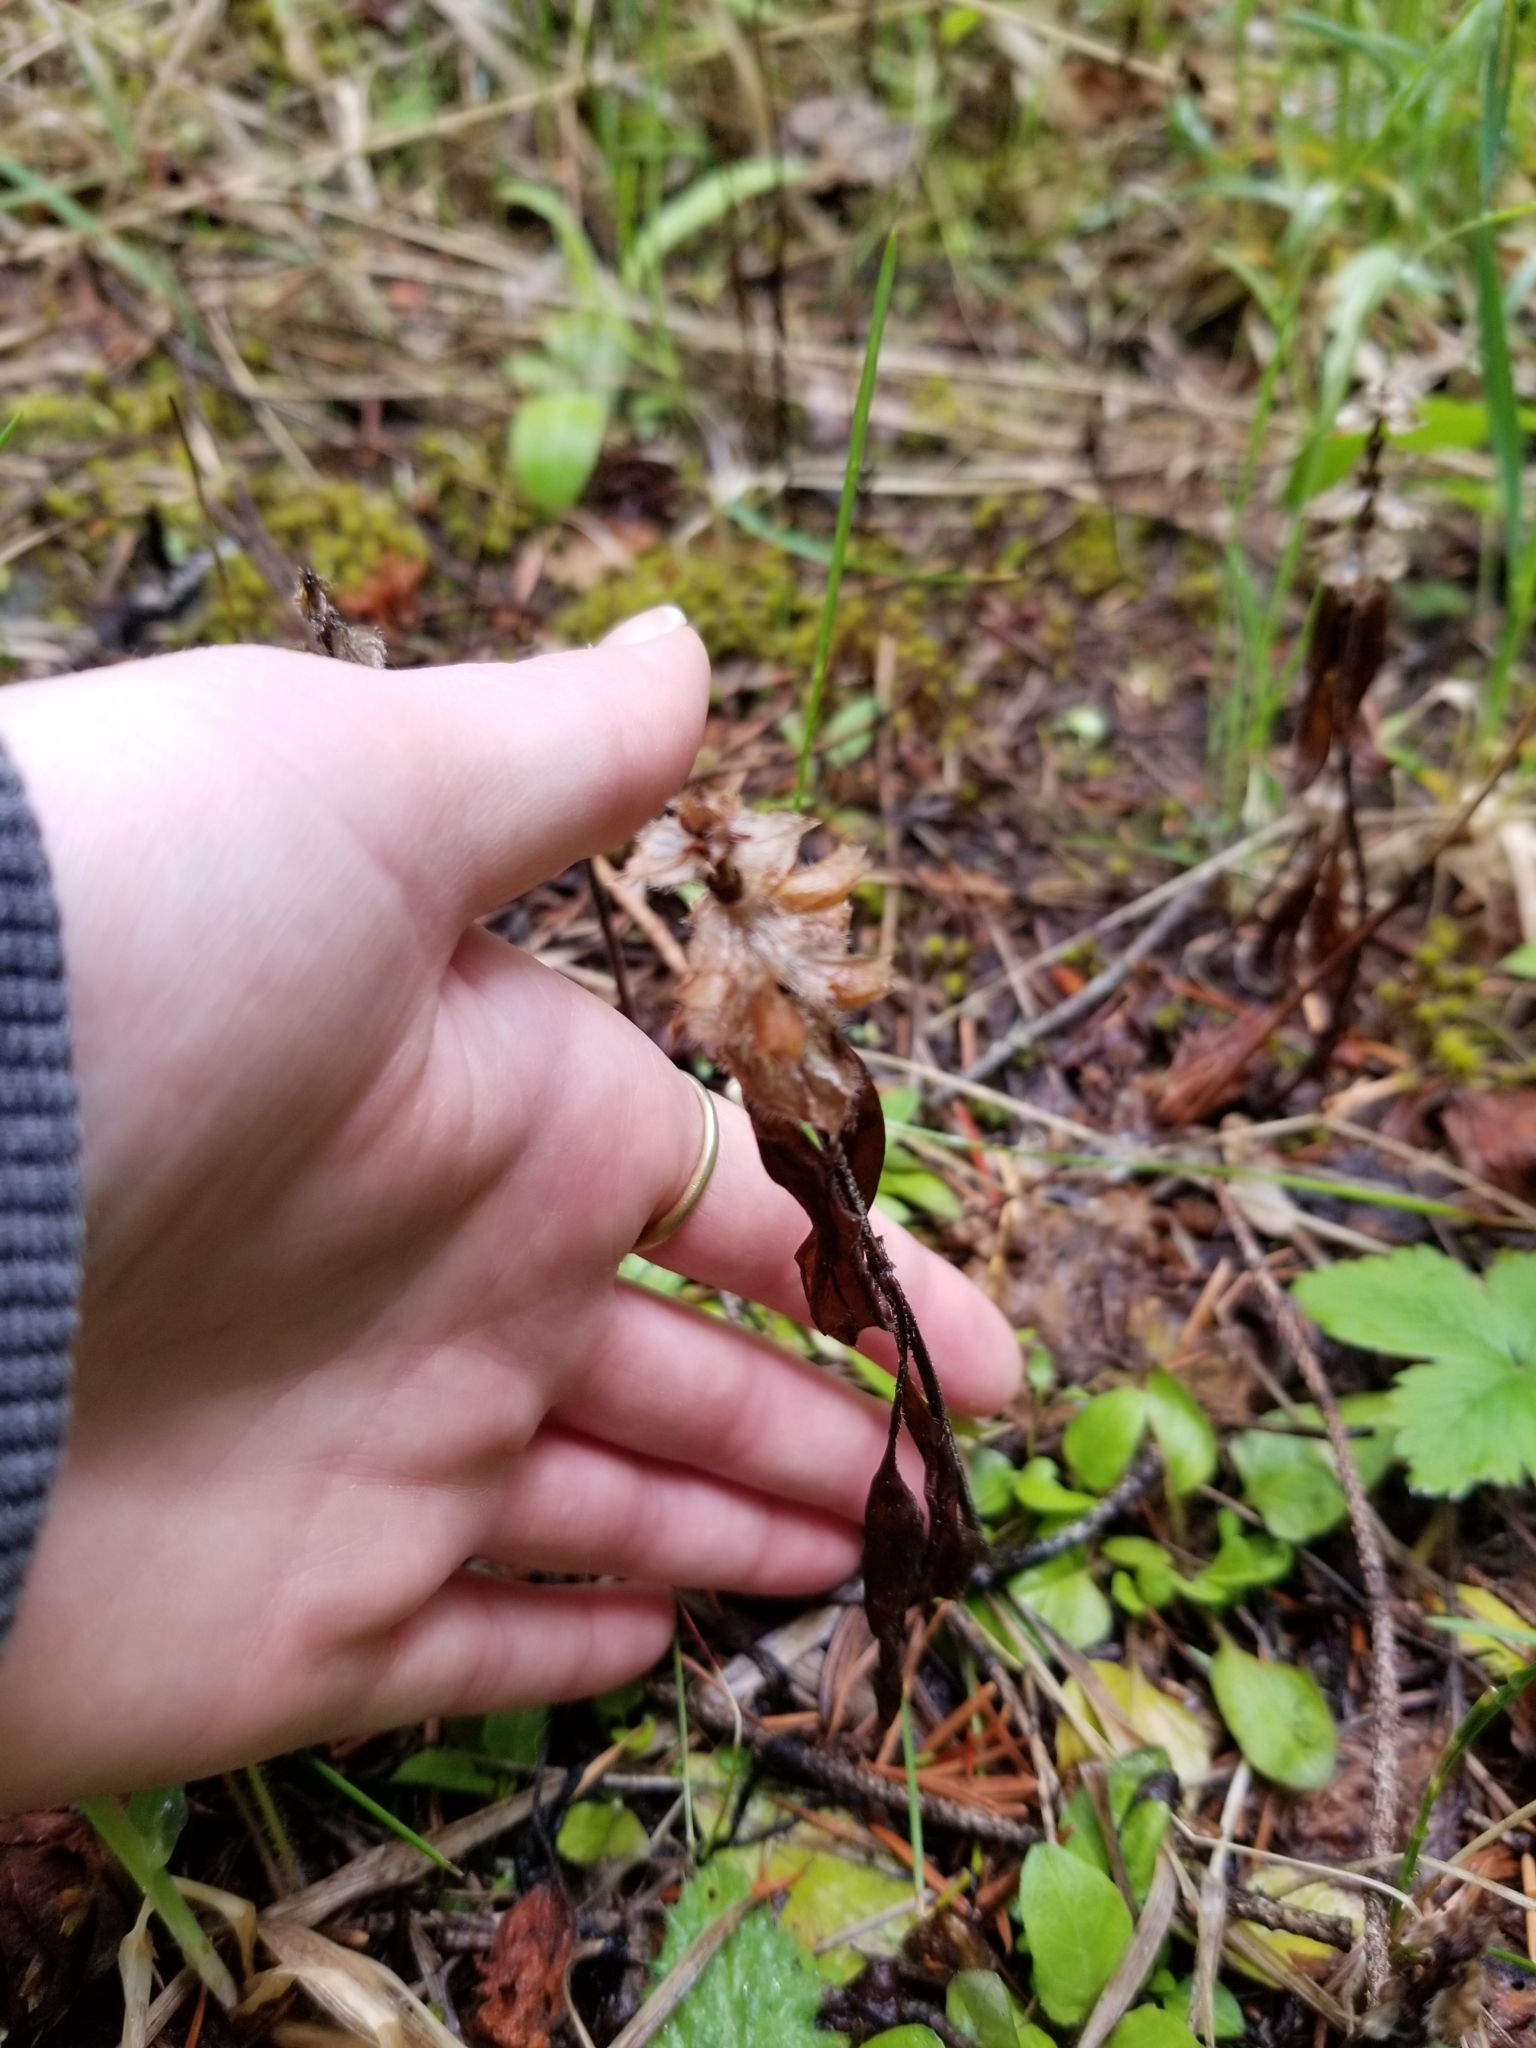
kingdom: Plantae
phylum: Tracheophyta
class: Magnoliopsida
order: Lamiales
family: Lamiaceae
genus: Prunella
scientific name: Prunella vulgaris
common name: Heal-all
